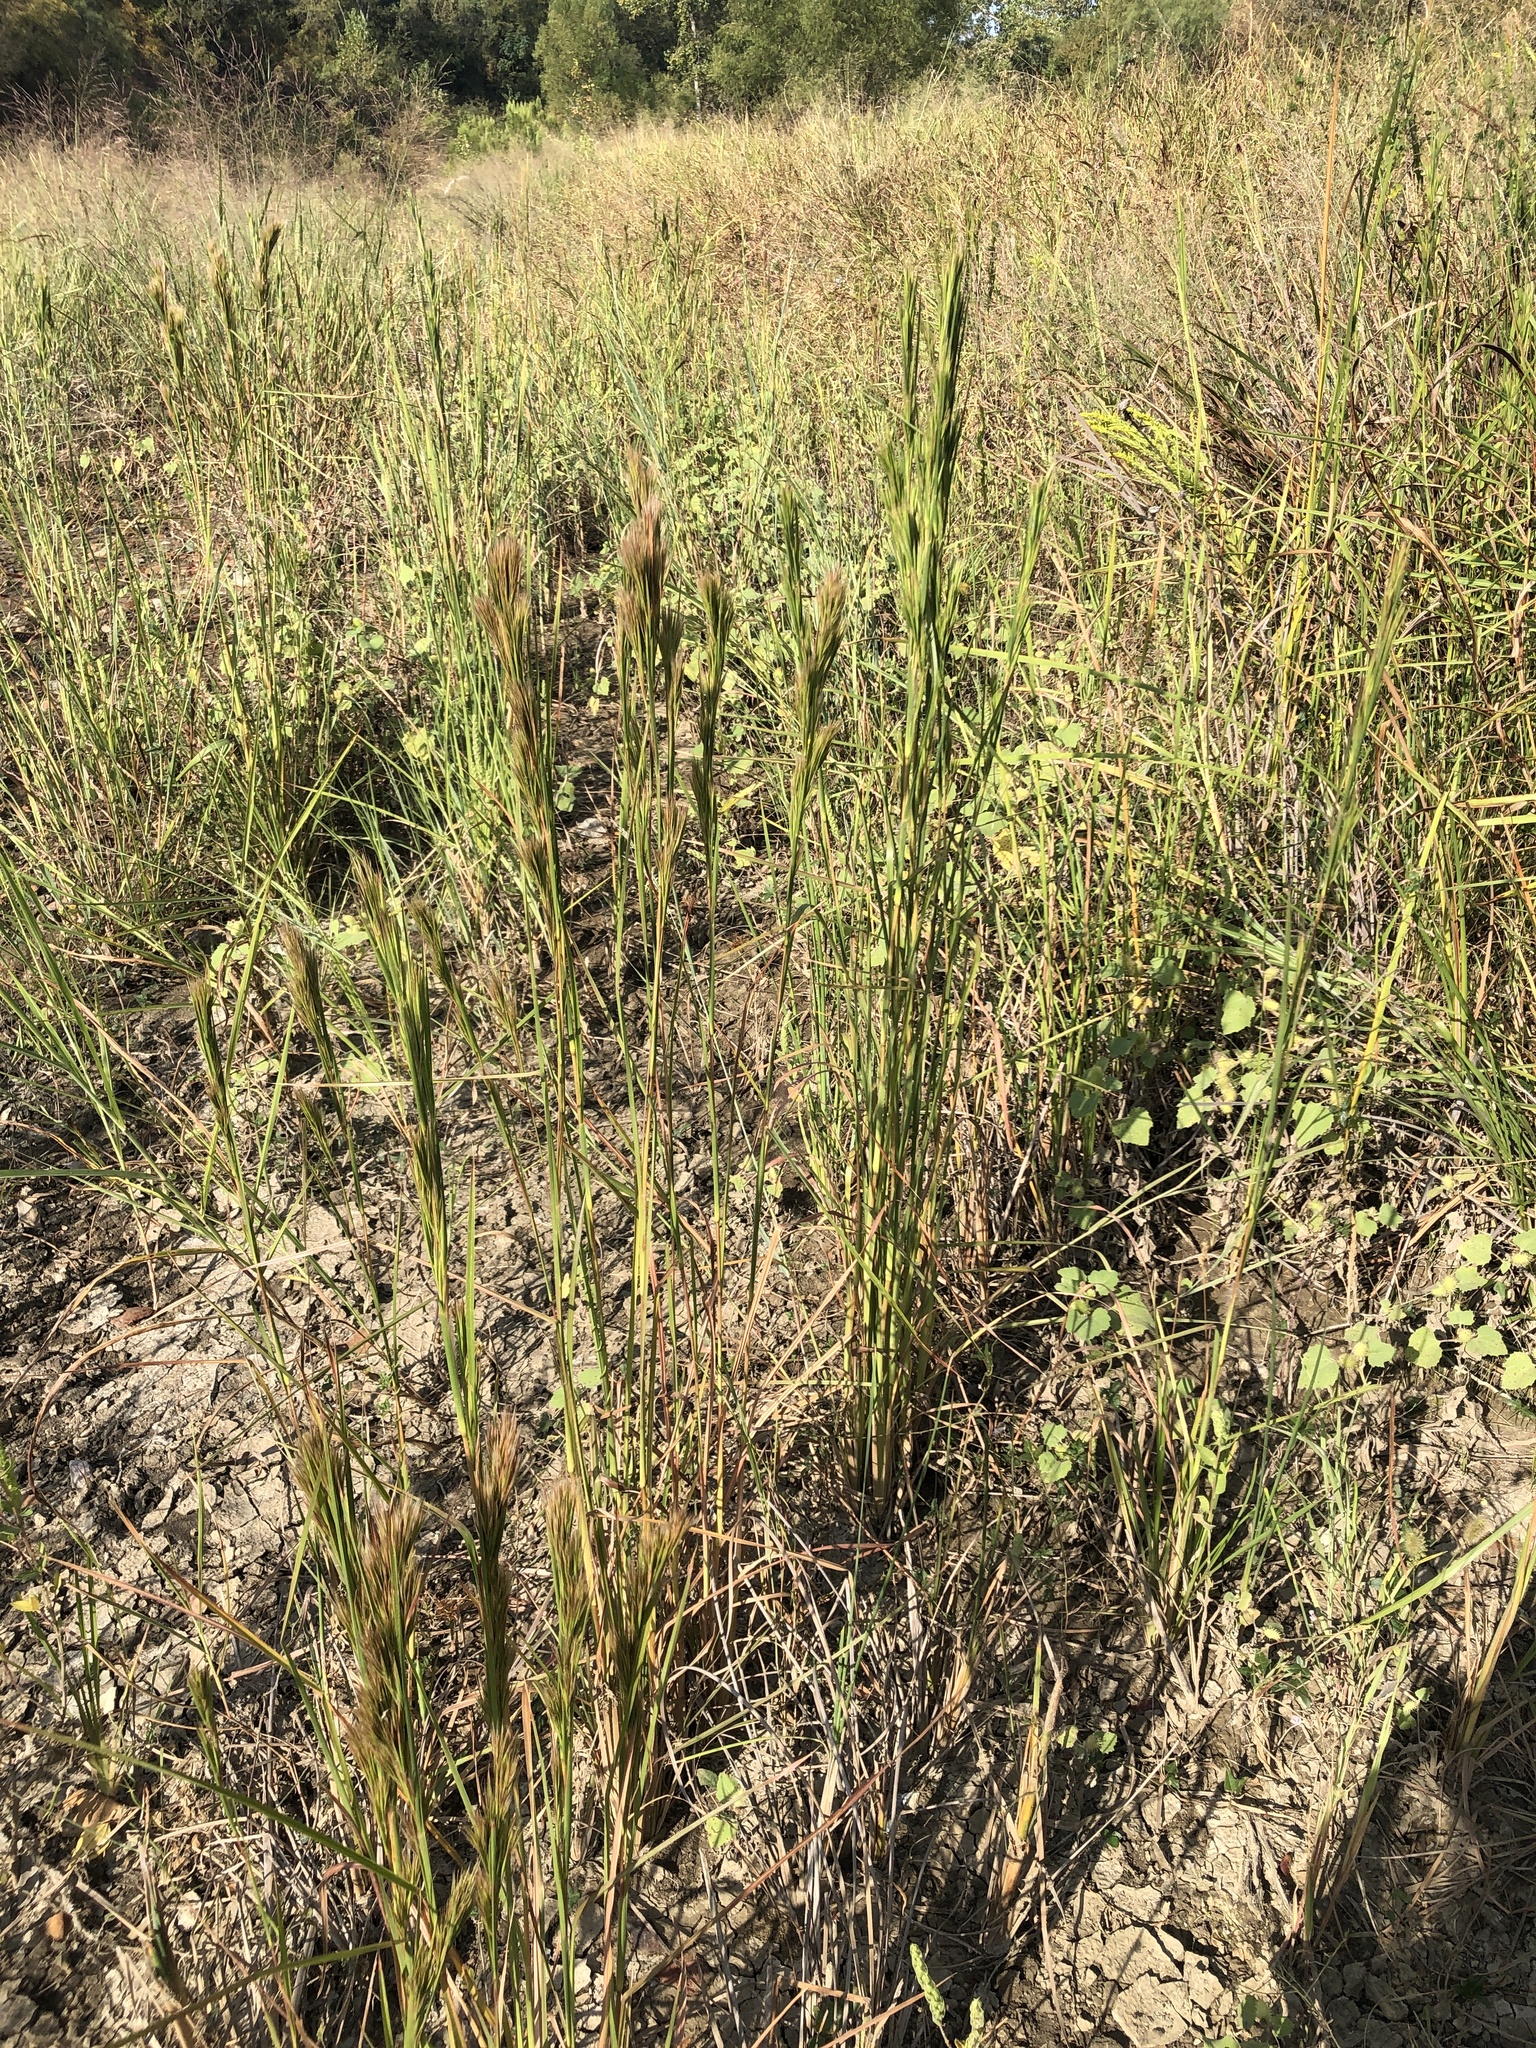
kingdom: Plantae
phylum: Tracheophyta
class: Liliopsida
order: Poales
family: Poaceae
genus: Andropogon
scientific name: Andropogon tenuispatheus
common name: Bushy bluestem
